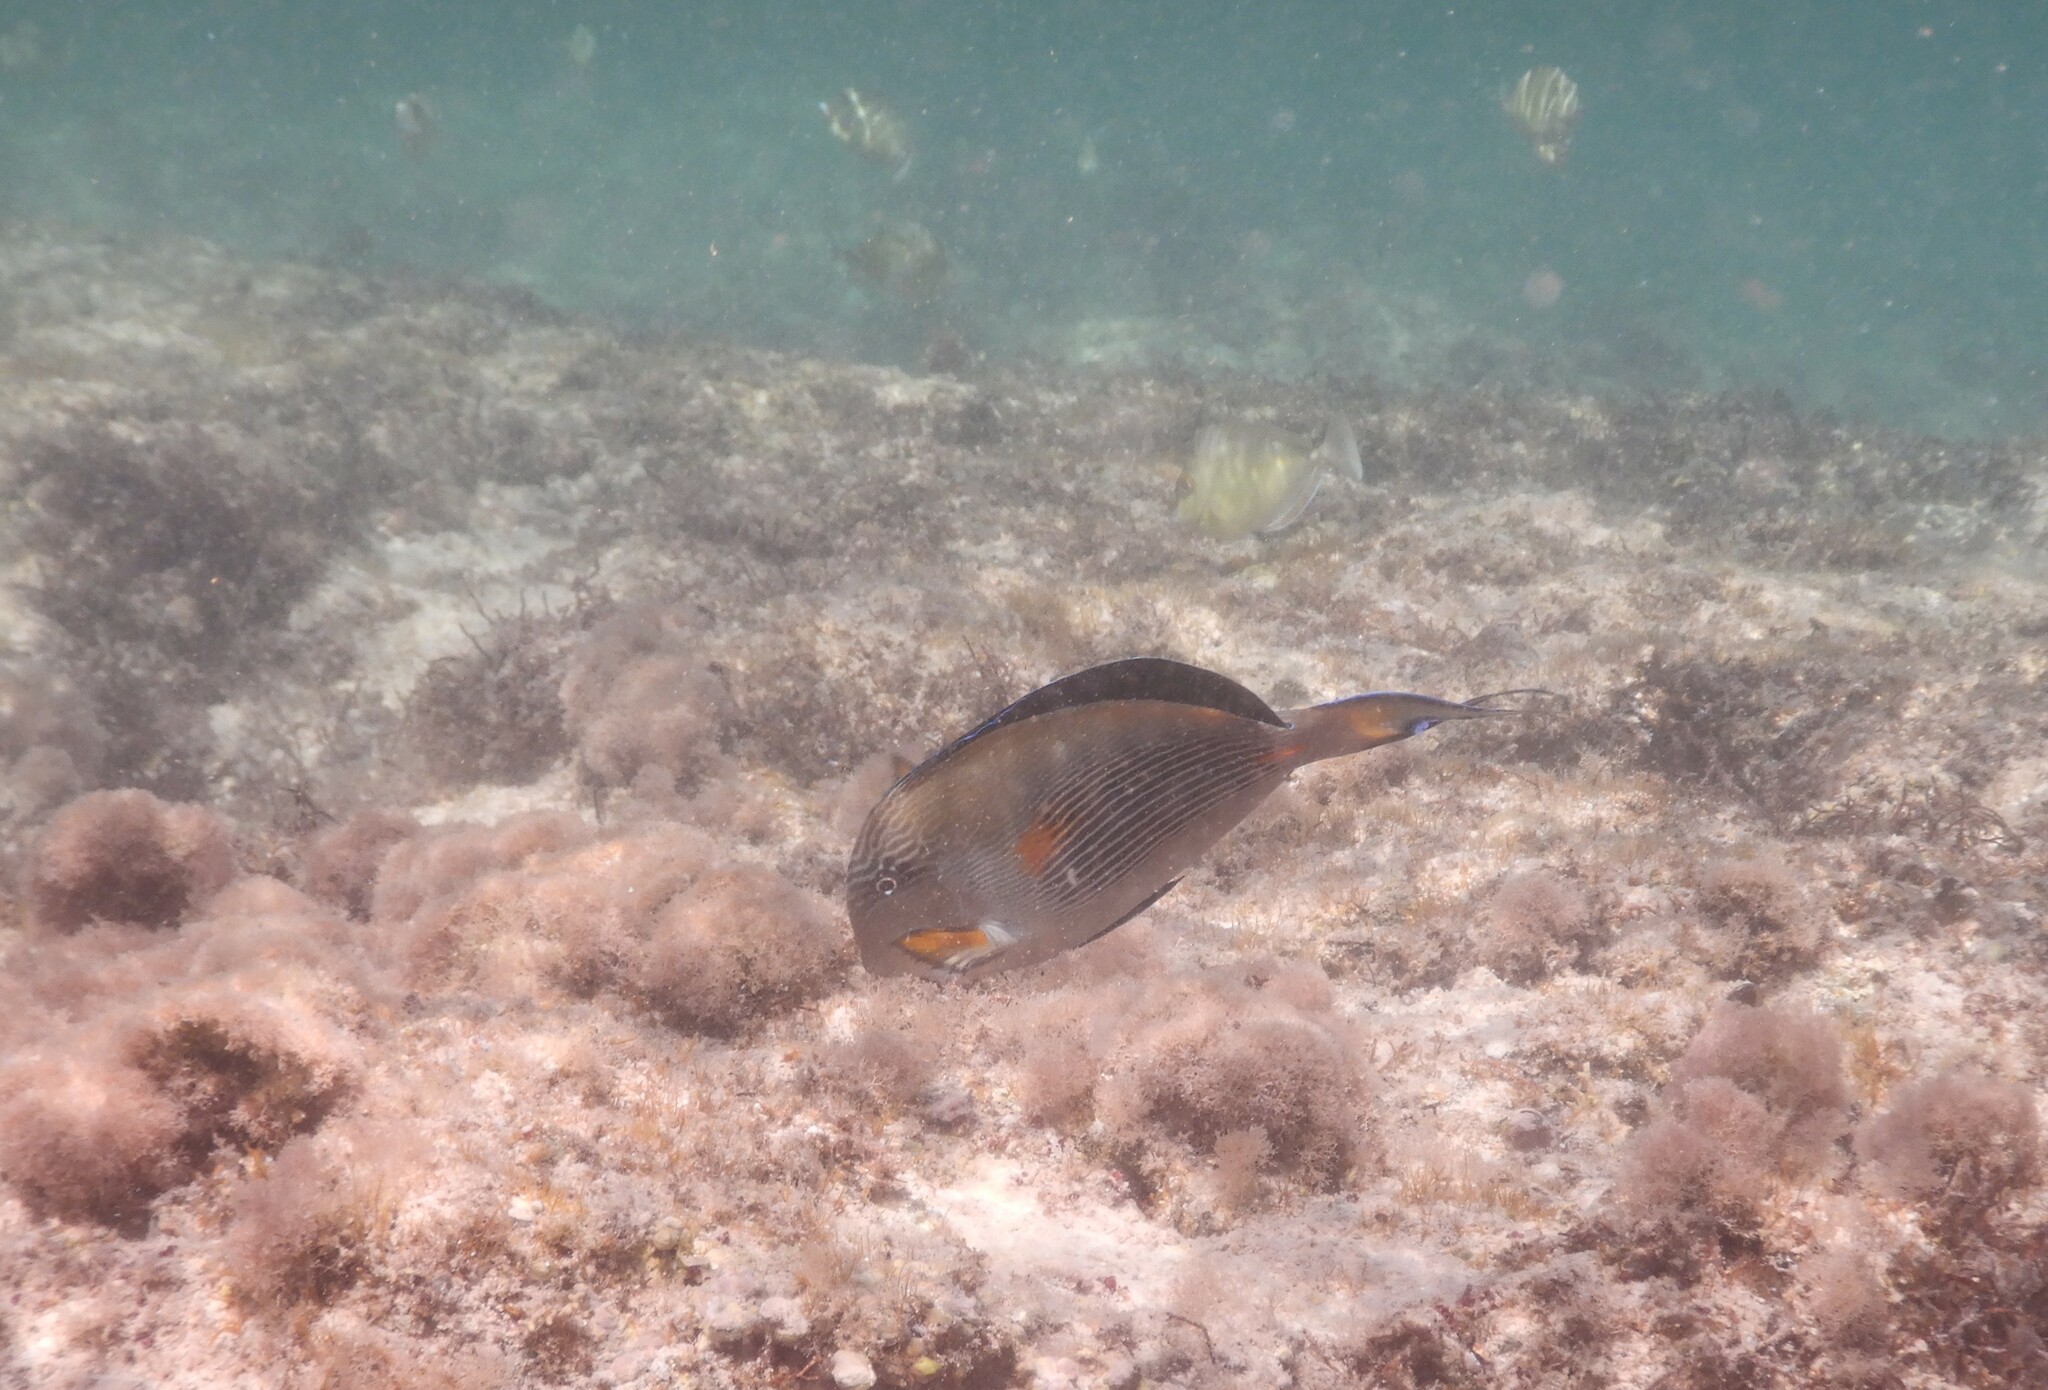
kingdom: Animalia
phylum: Chordata
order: Perciformes
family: Acanthuridae
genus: Acanthurus
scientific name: Acanthurus sohal
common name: Red sea surgeonfish
